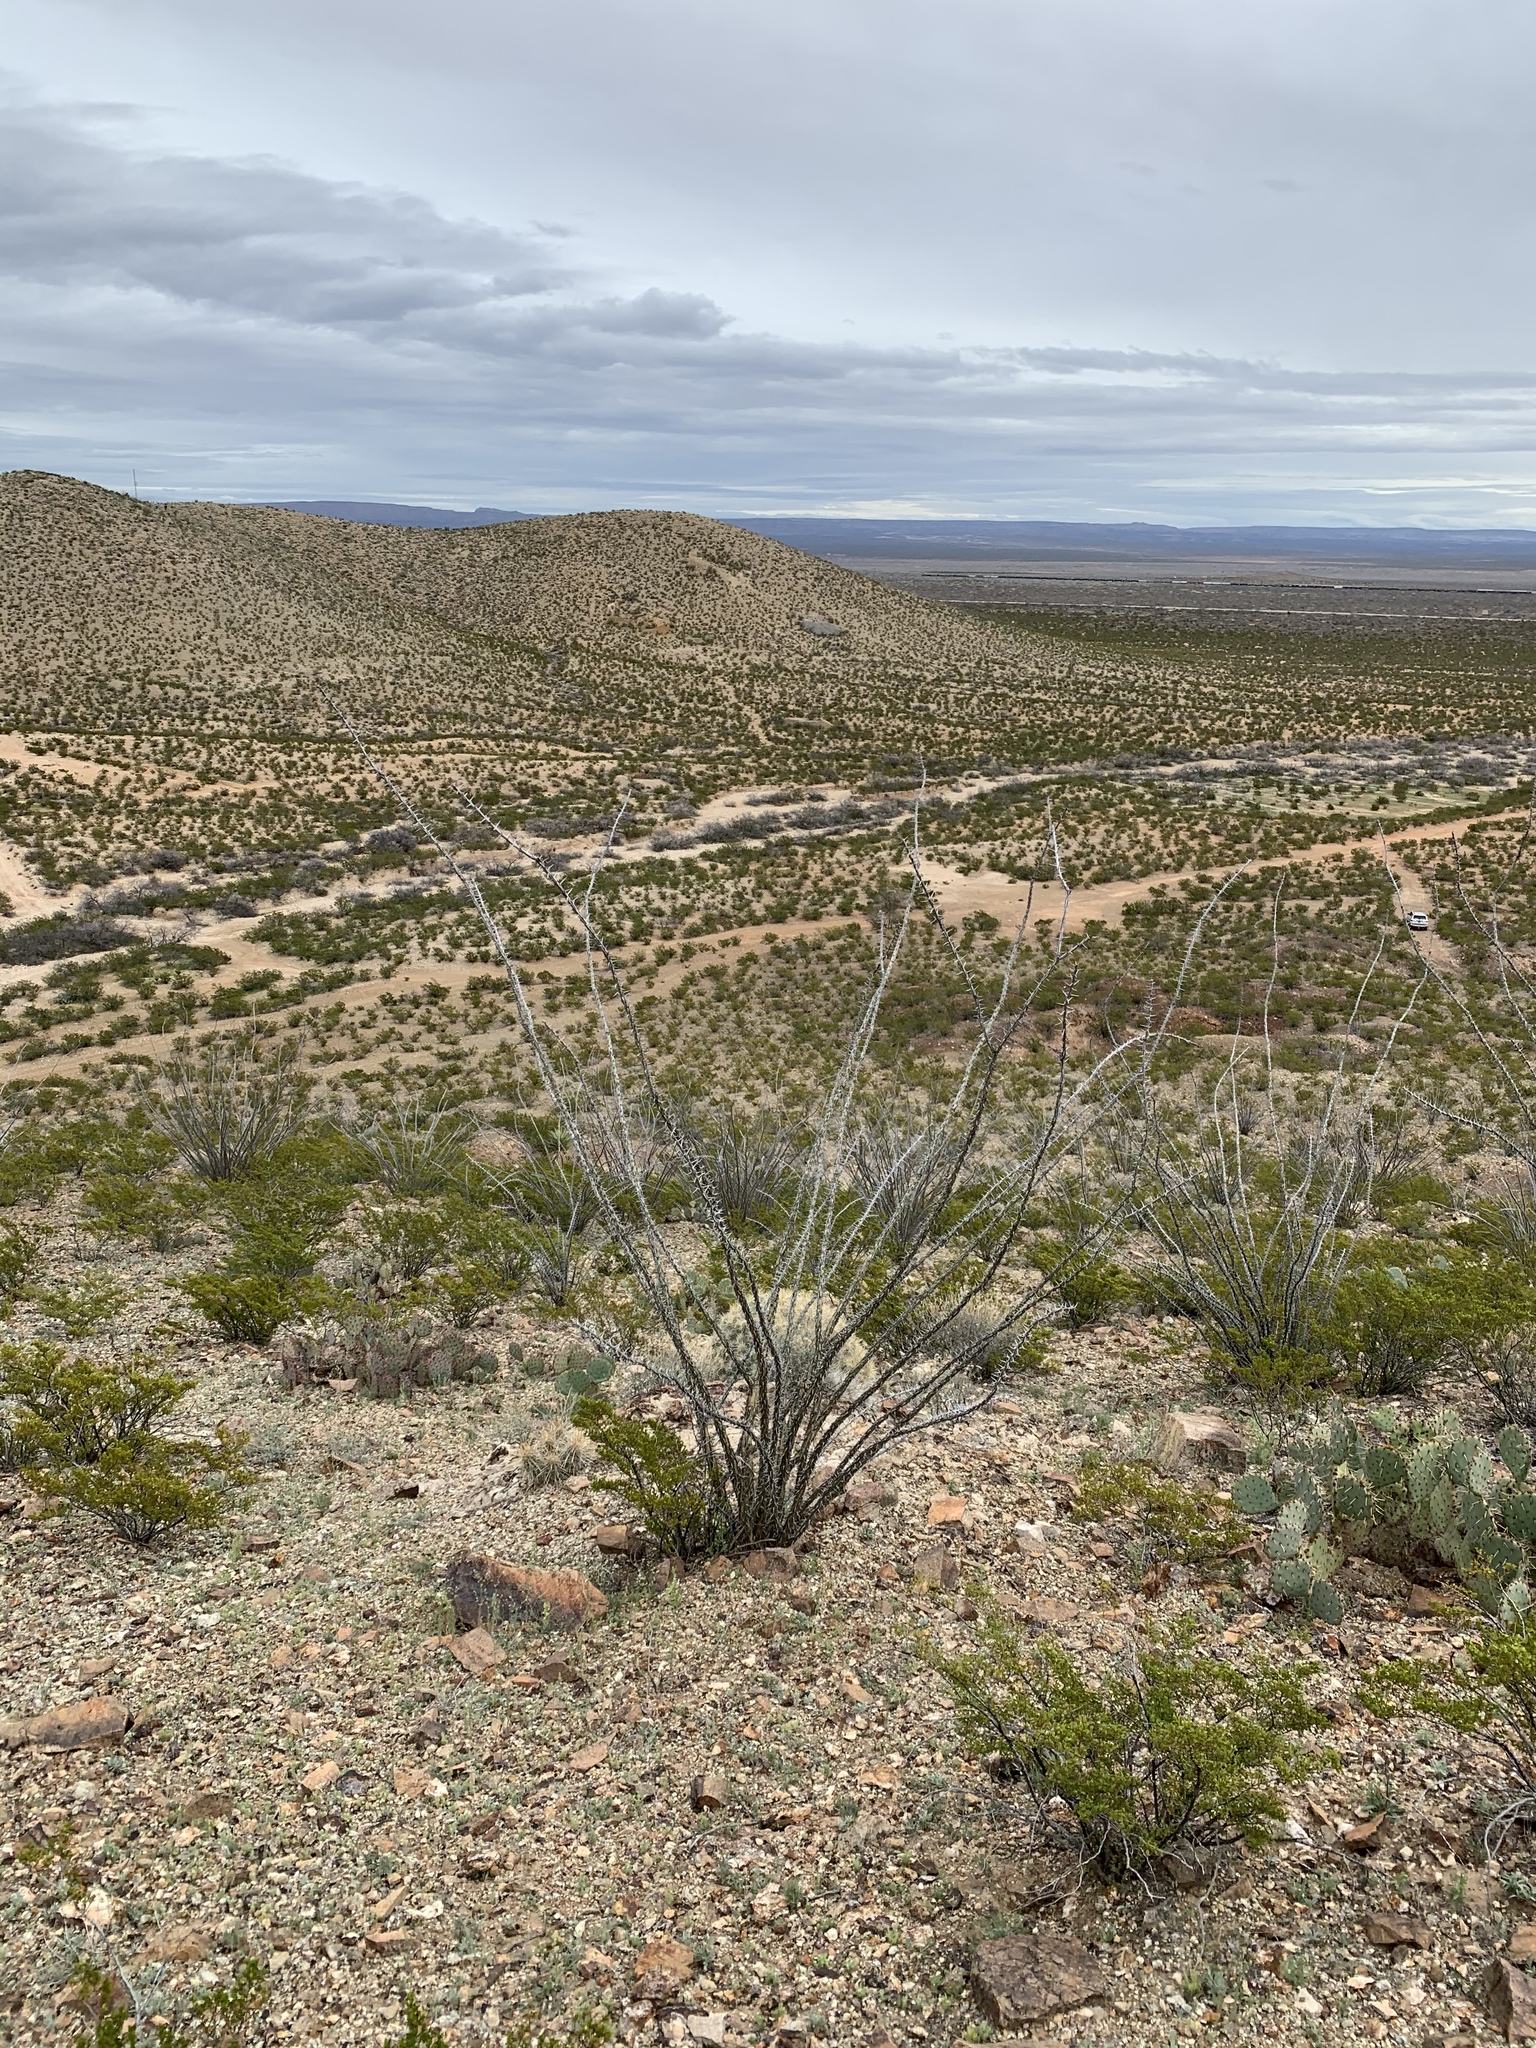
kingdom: Plantae
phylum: Tracheophyta
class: Magnoliopsida
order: Ericales
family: Fouquieriaceae
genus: Fouquieria
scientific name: Fouquieria splendens
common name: Vine-cactus
